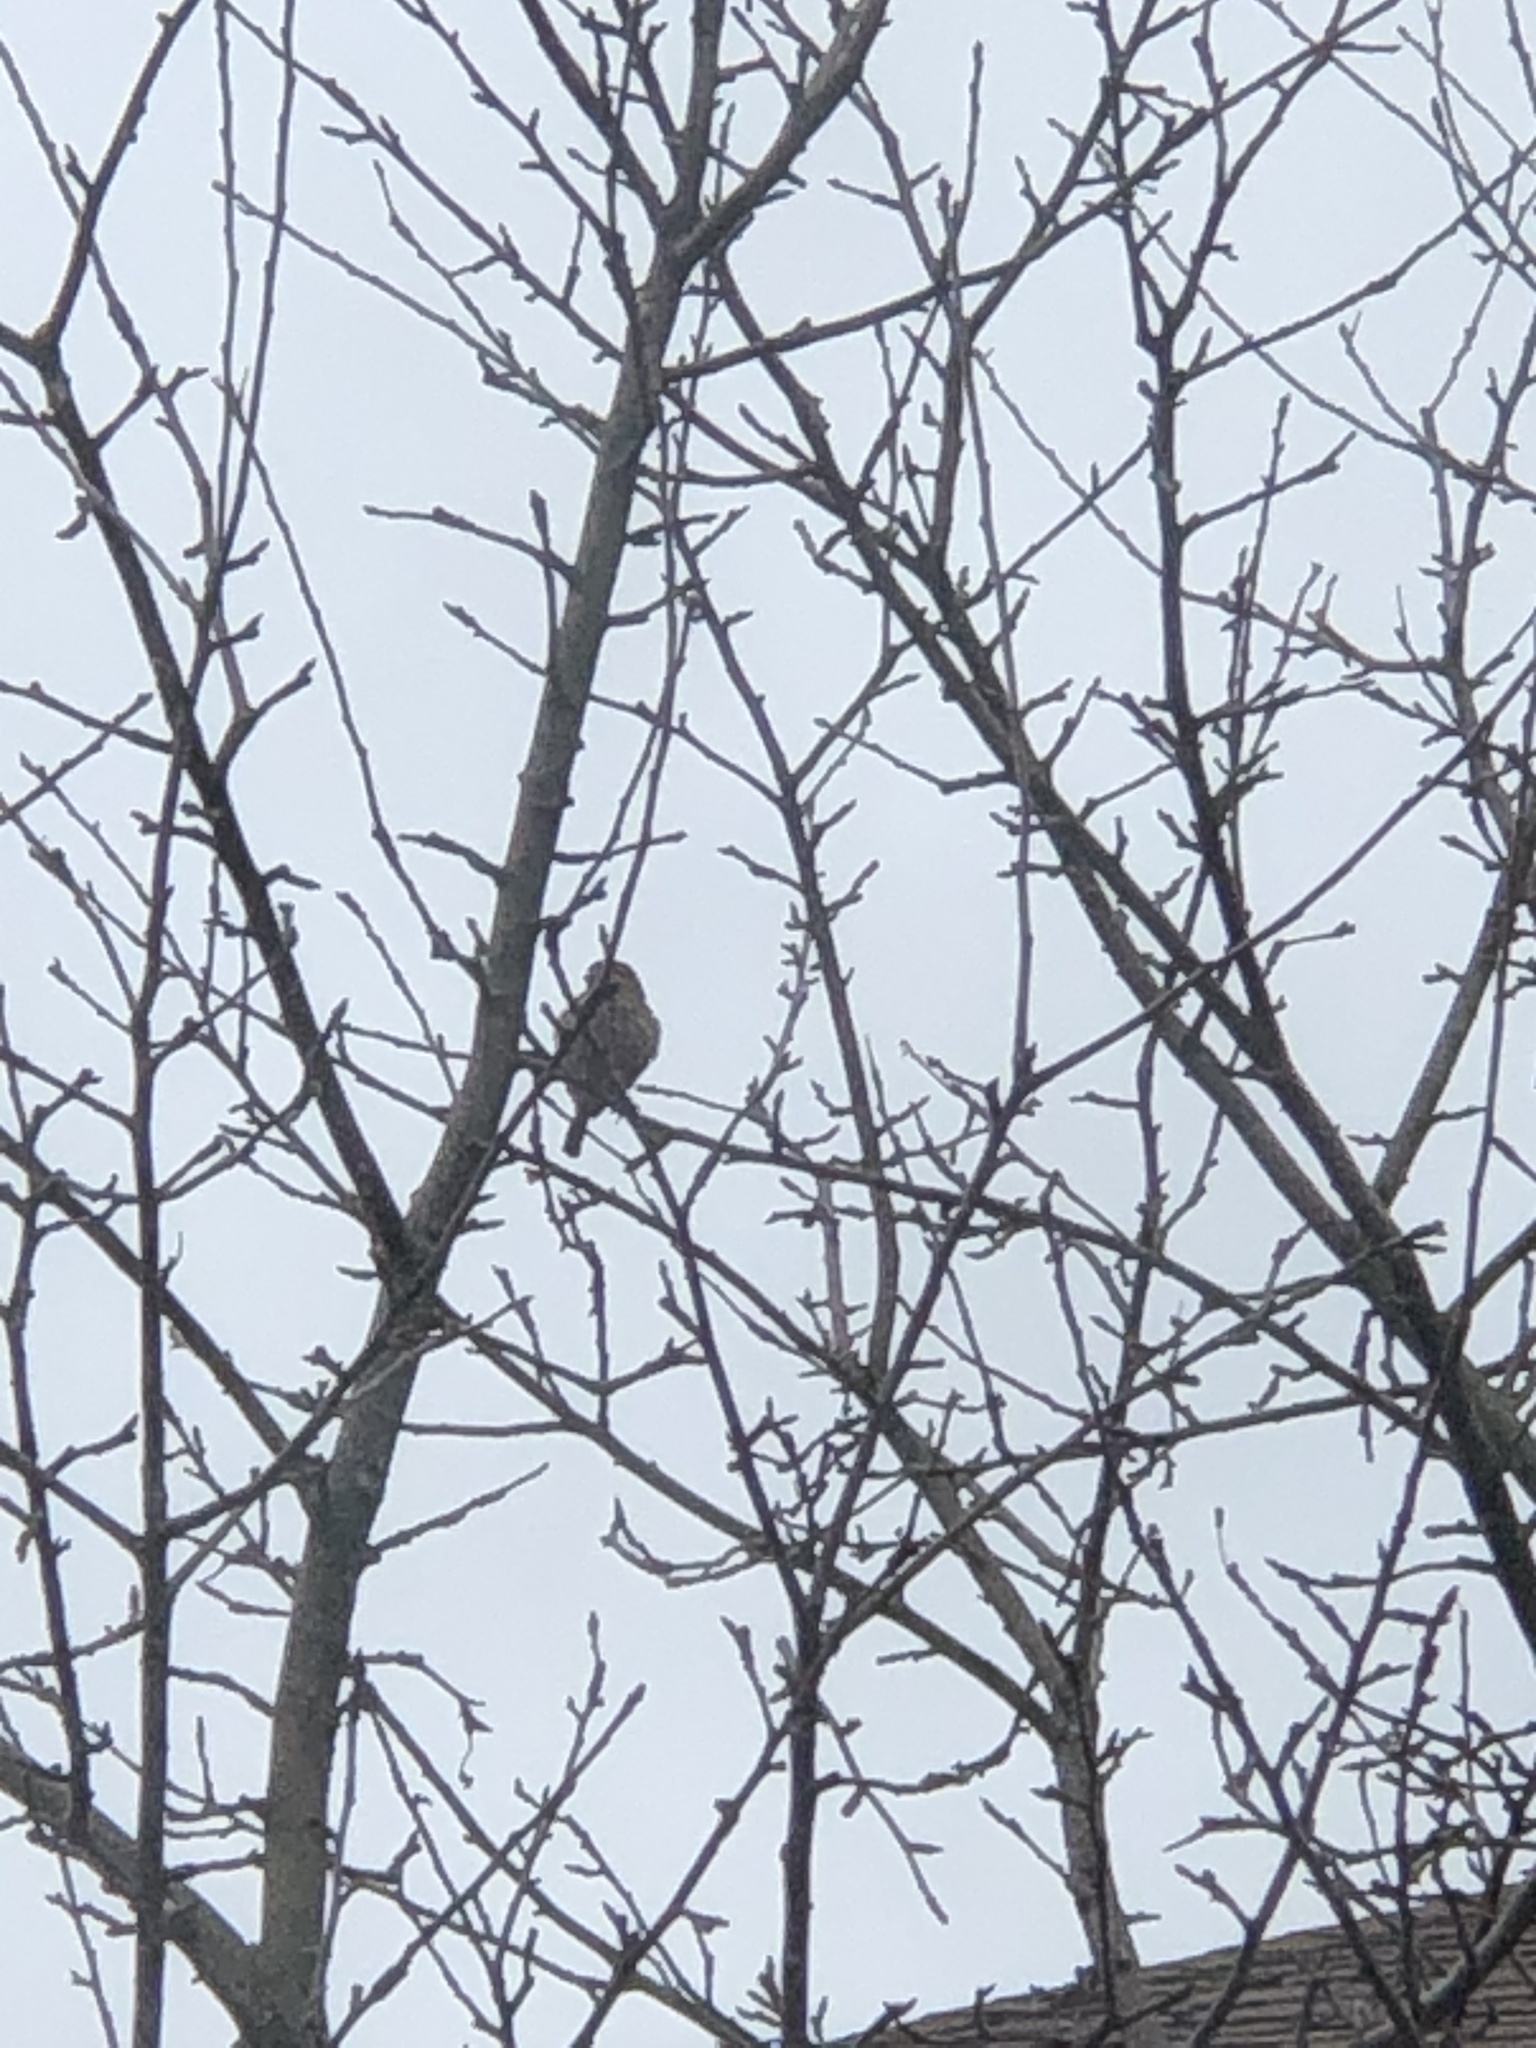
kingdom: Animalia
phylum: Chordata
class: Aves
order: Passeriformes
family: Fringillidae
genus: Haemorhous
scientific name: Haemorhous mexicanus
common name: House finch
